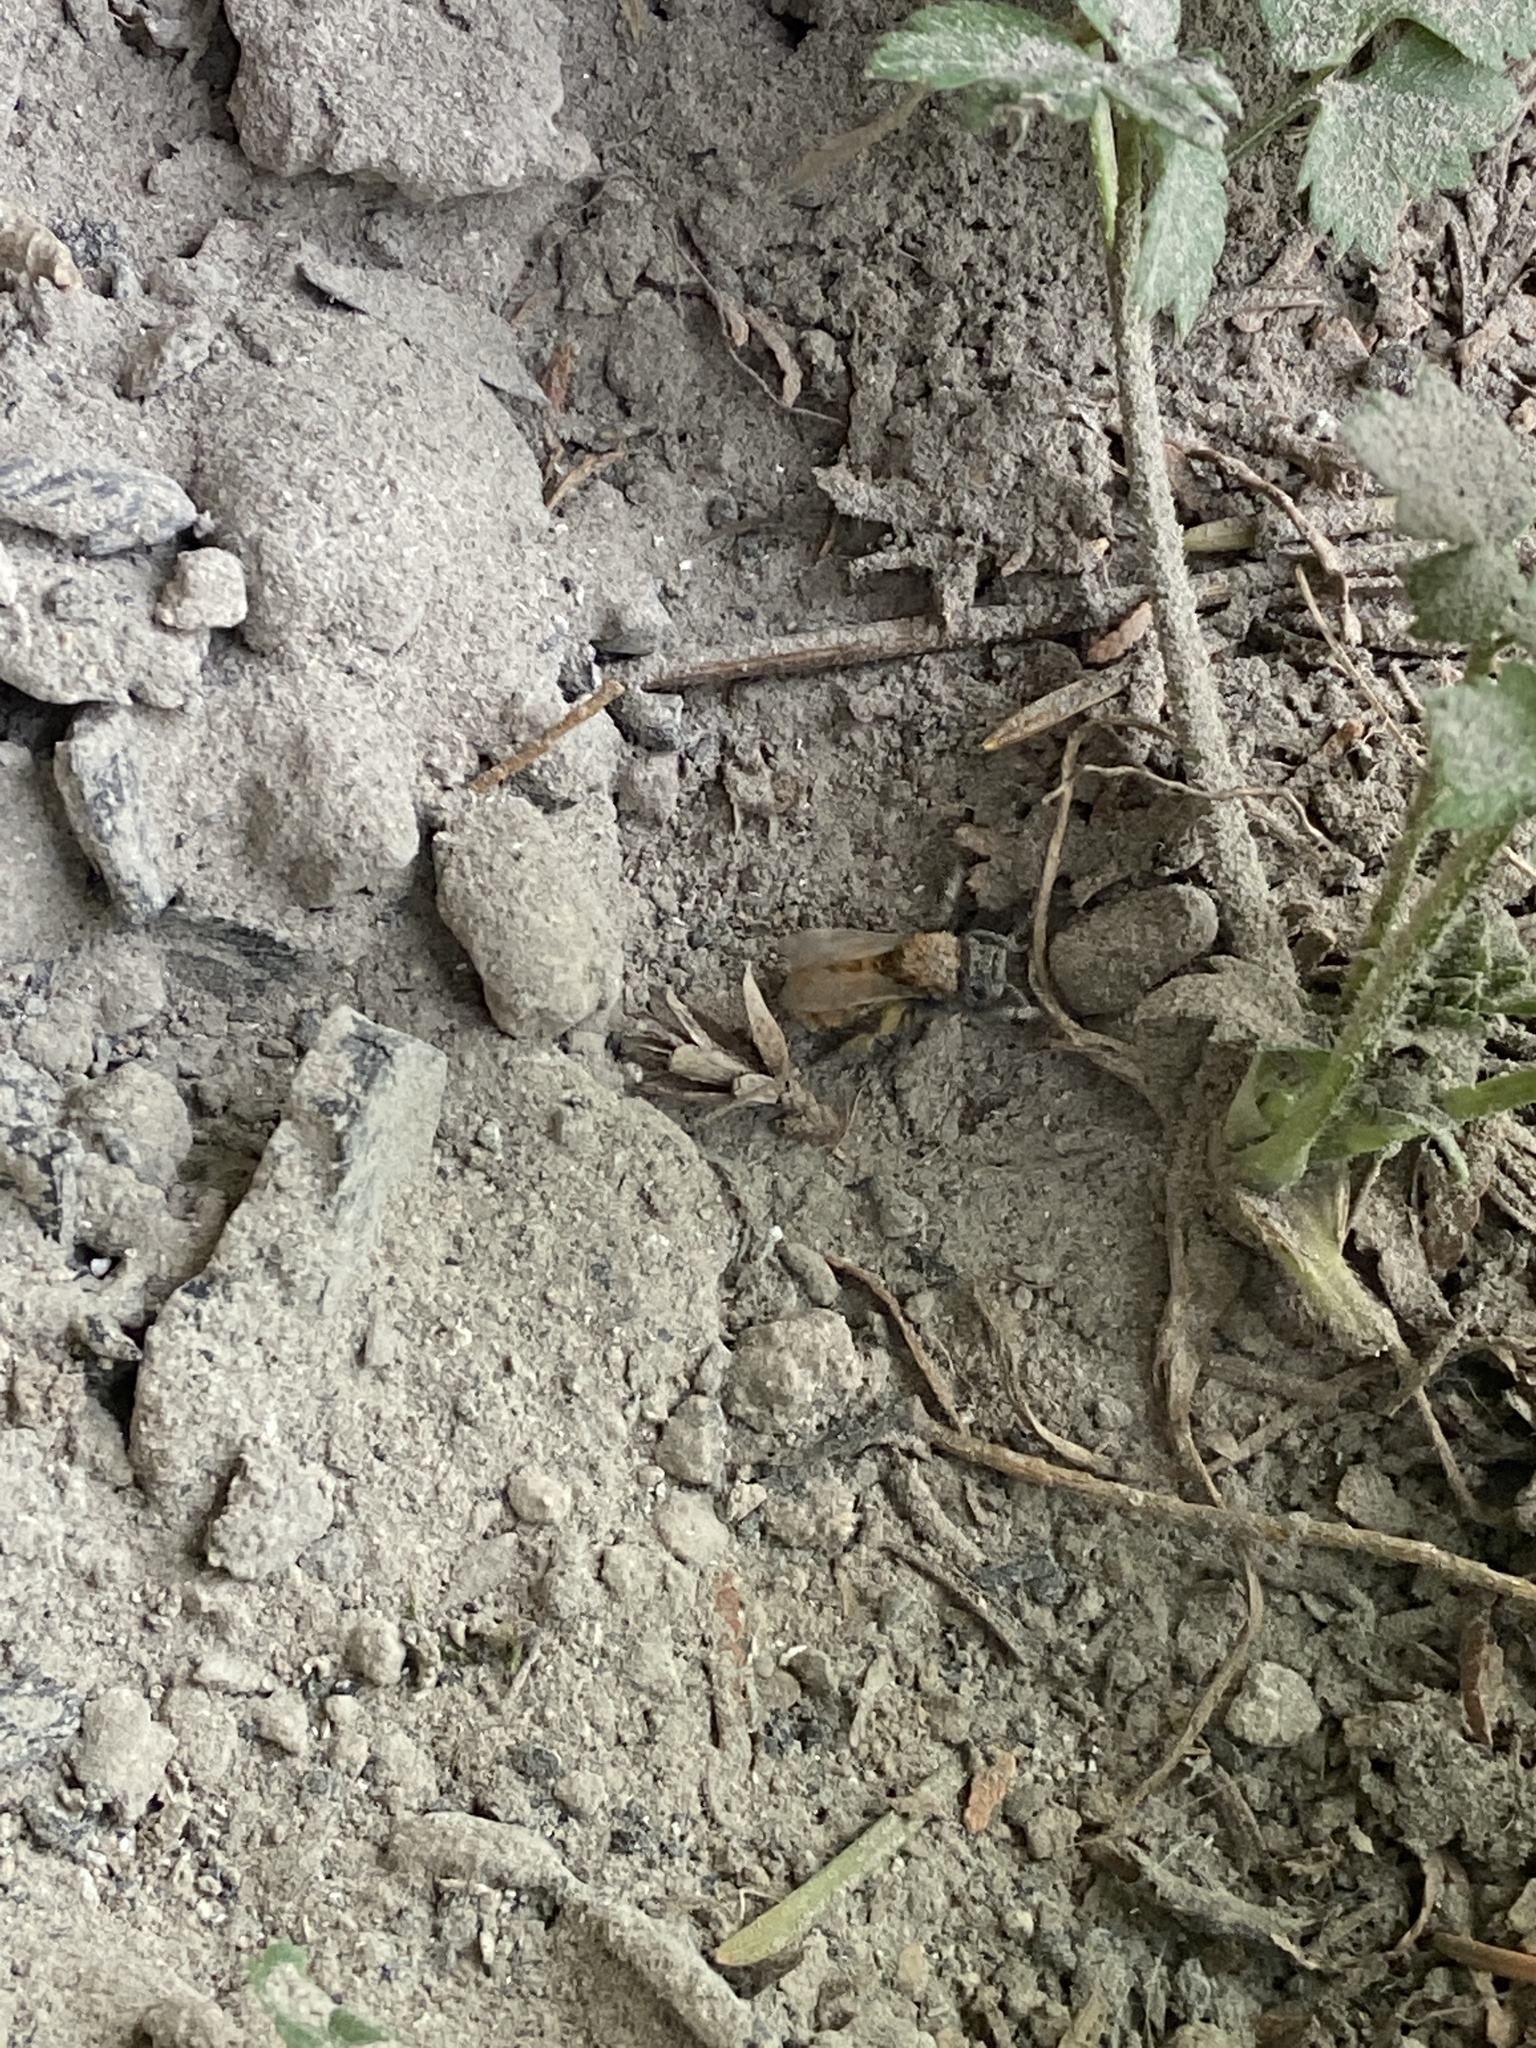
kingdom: Animalia
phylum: Arthropoda
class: Insecta
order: Hymenoptera
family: Andrenidae
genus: Andrena
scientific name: Andrena fulva
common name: Tawny mining bee
